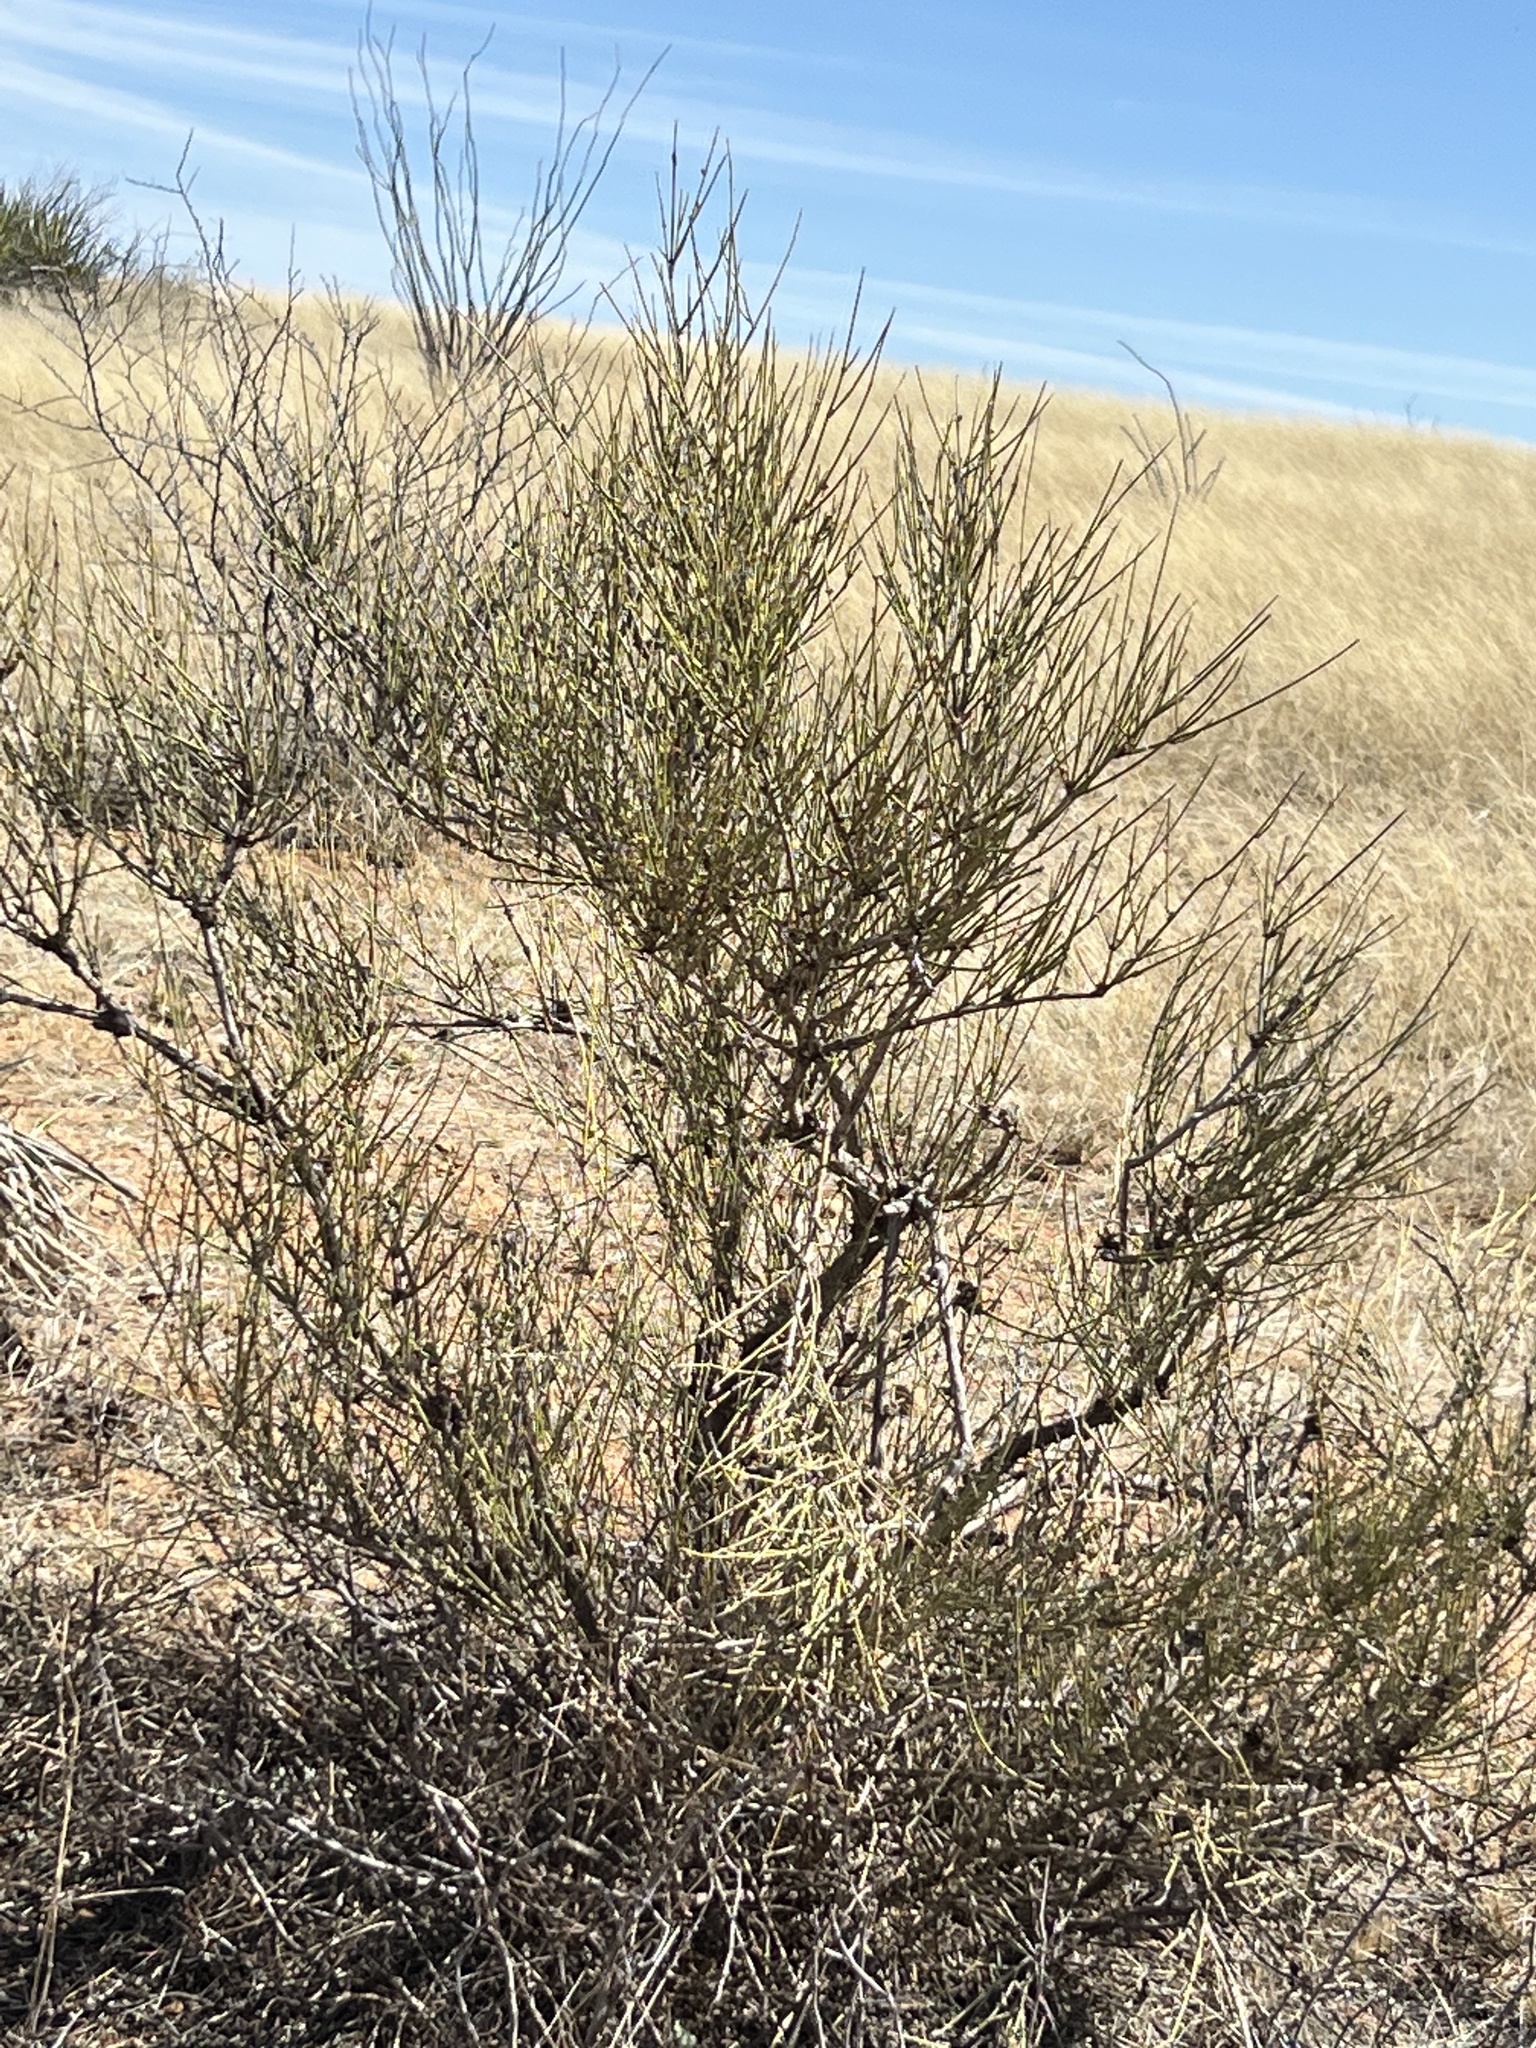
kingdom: Plantae
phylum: Tracheophyta
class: Gnetopsida
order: Ephedrales
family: Ephedraceae
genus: Ephedra
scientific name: Ephedra trifurca
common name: Mexican-tea
